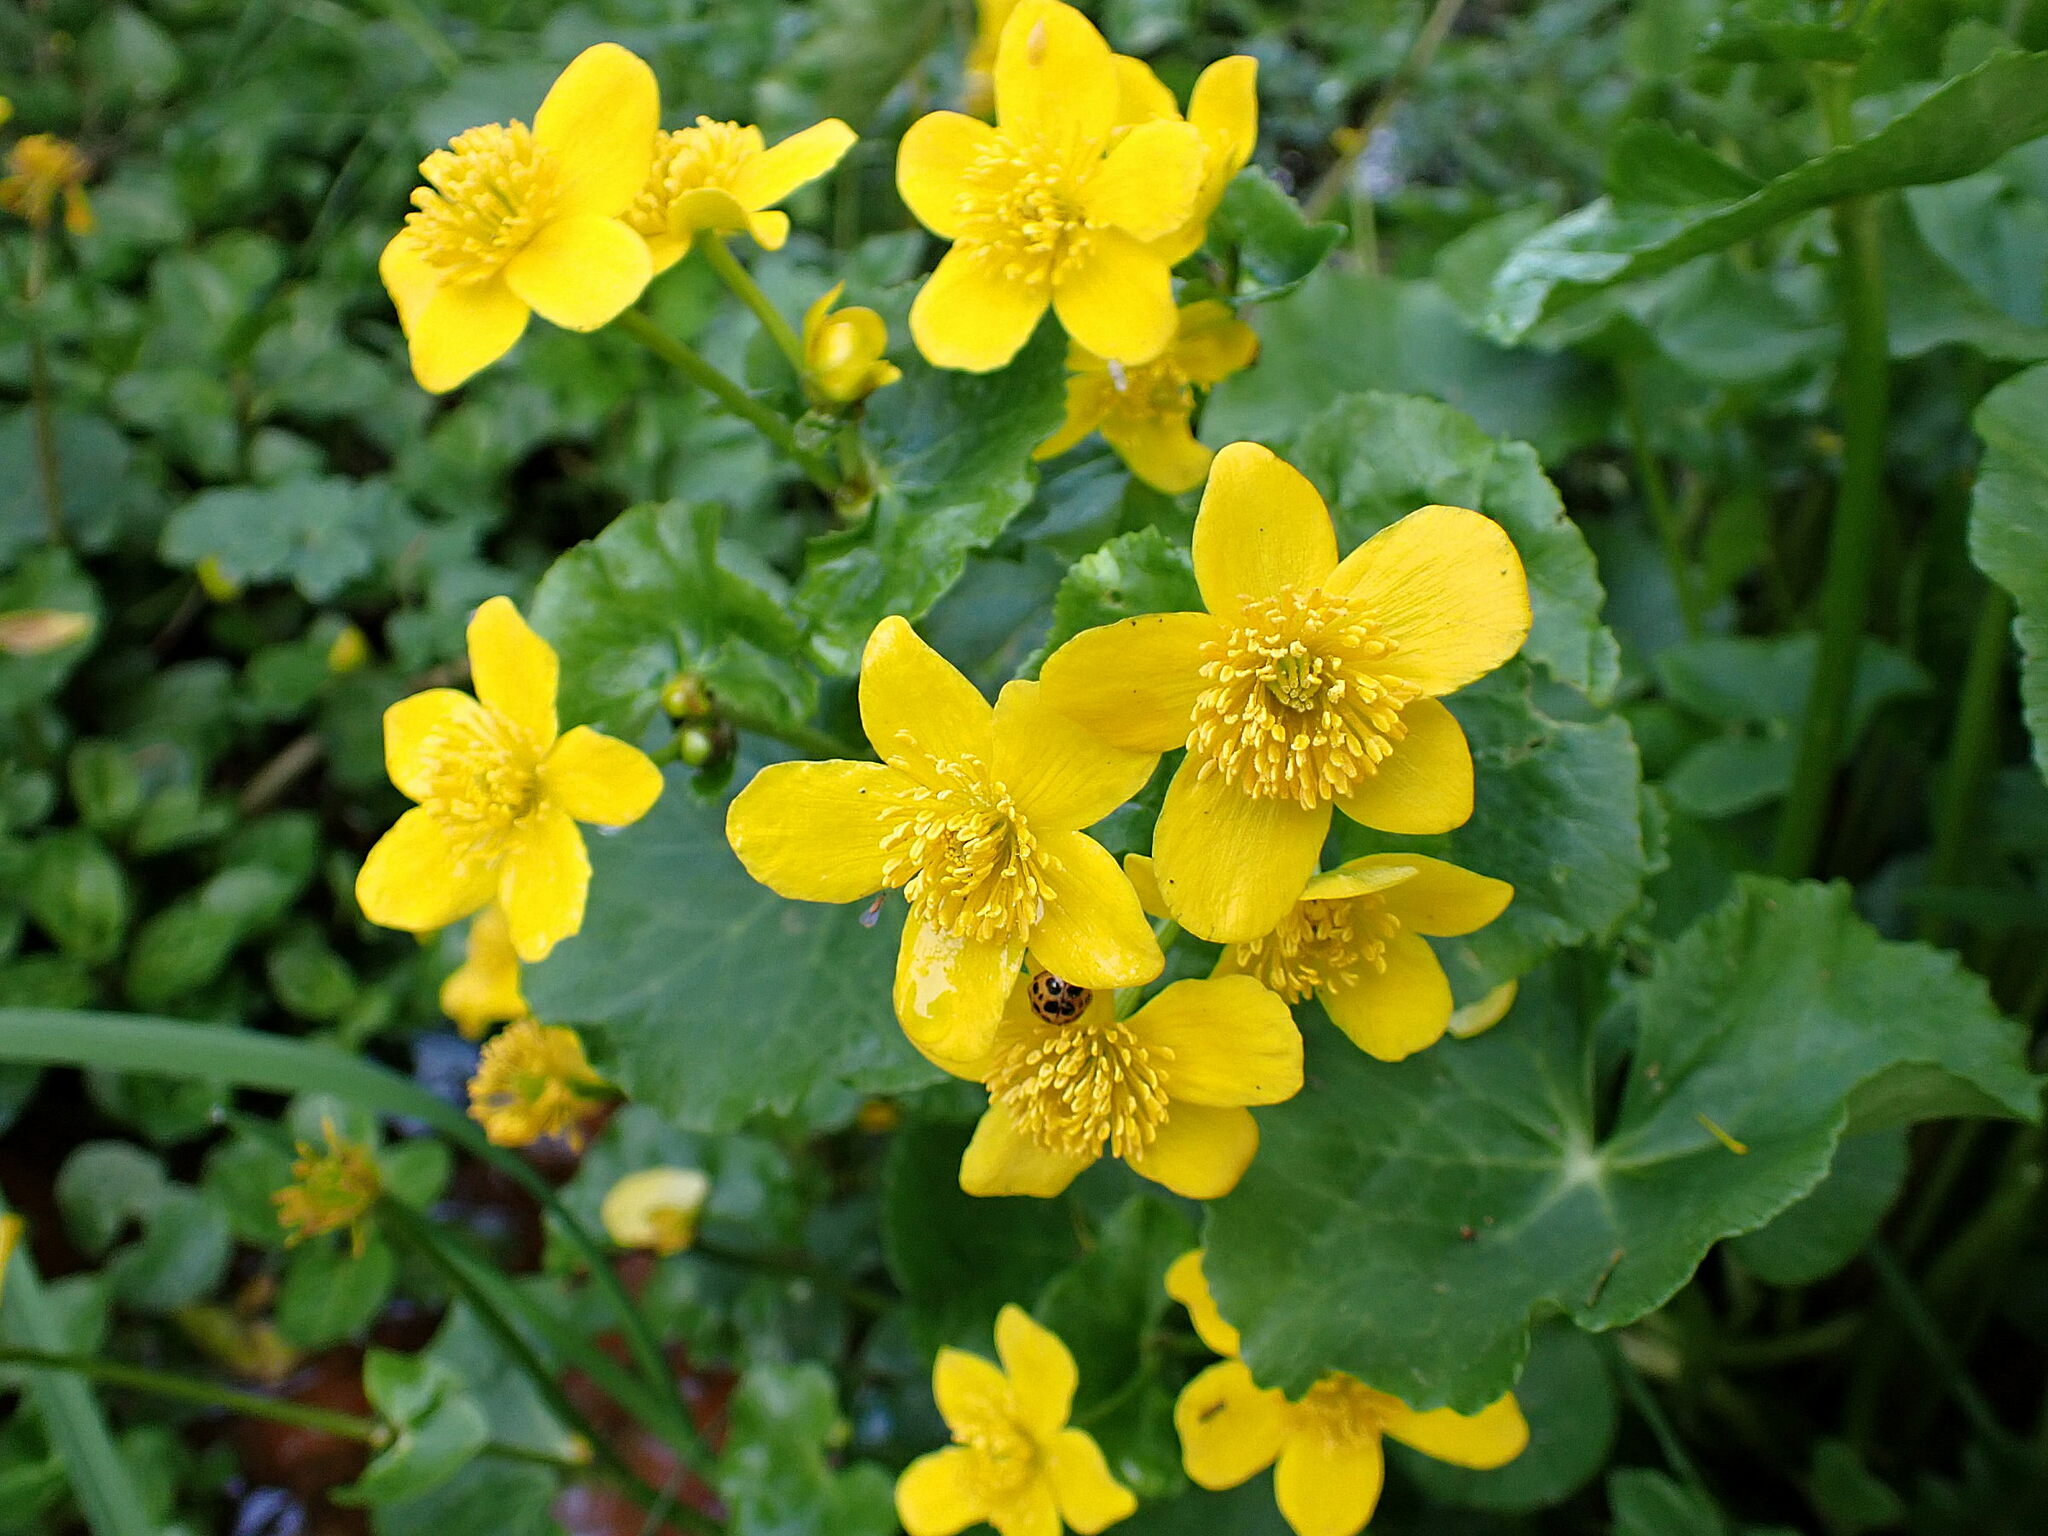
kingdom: Plantae
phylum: Tracheophyta
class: Magnoliopsida
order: Ranunculales
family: Ranunculaceae
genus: Caltha
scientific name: Caltha palustris
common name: Marsh marigold
